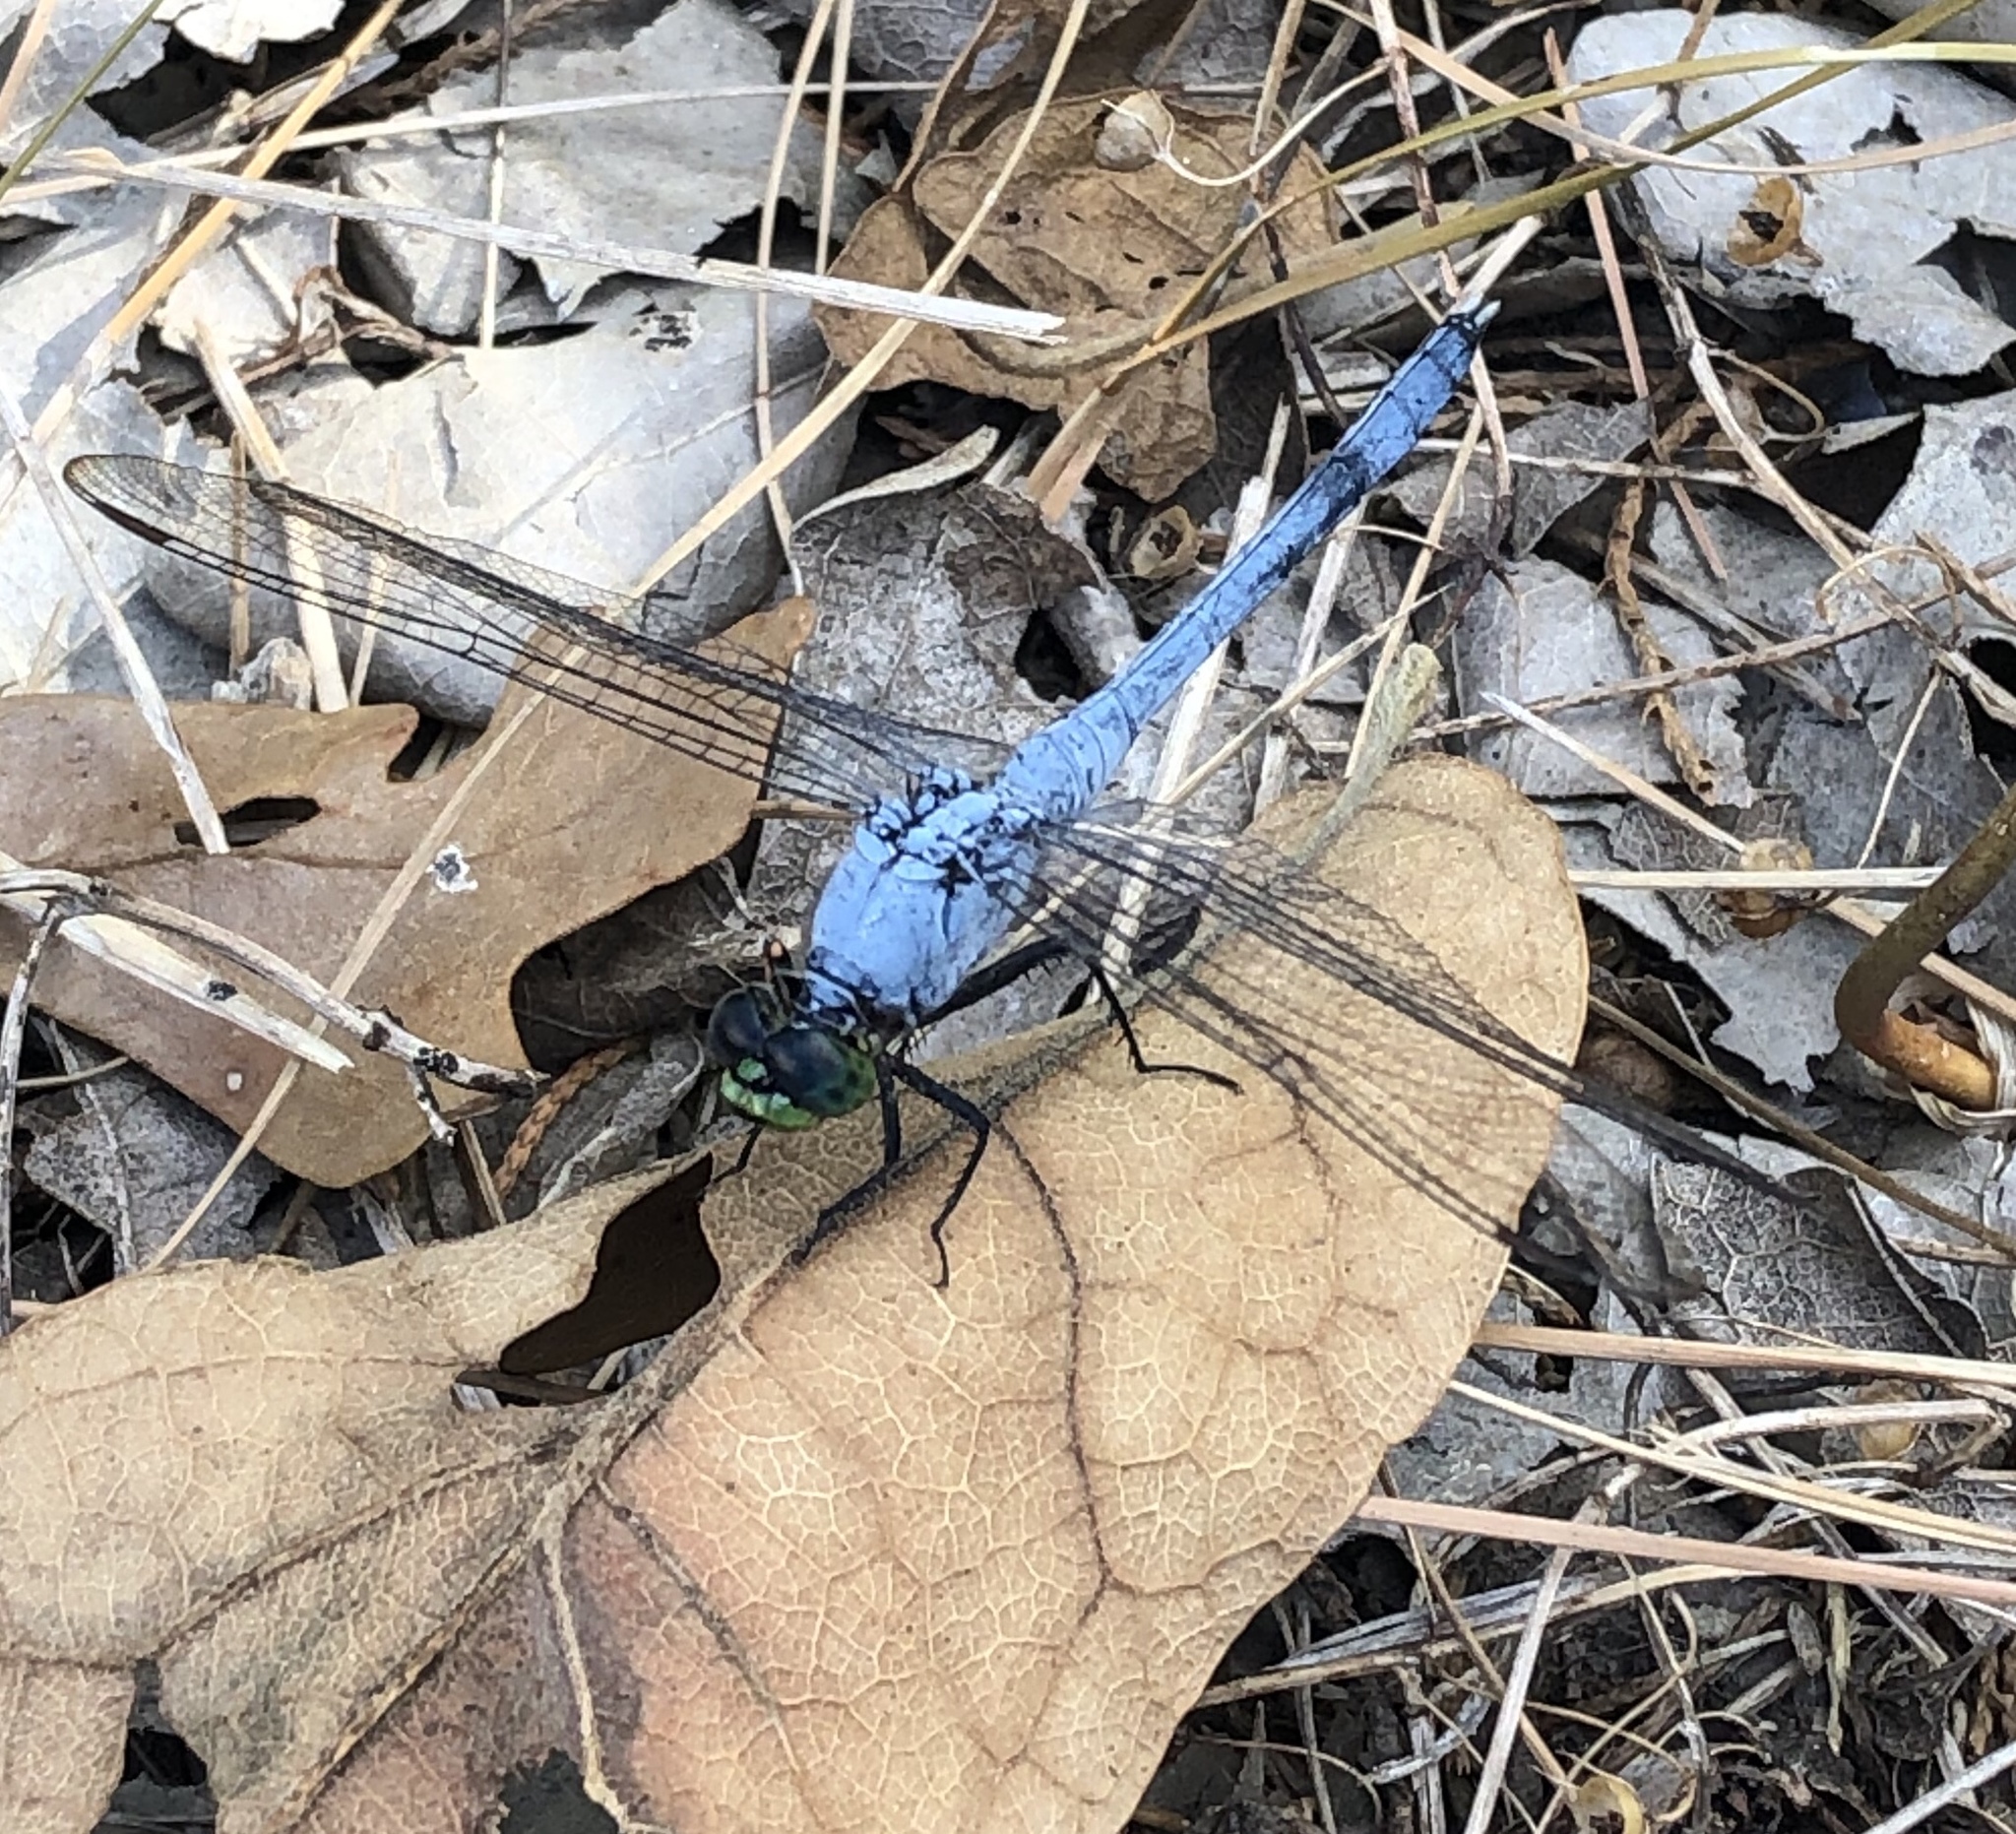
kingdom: Animalia
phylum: Arthropoda
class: Insecta
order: Odonata
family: Libellulidae
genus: Erythemis
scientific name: Erythemis simplicicollis
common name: Eastern pondhawk
